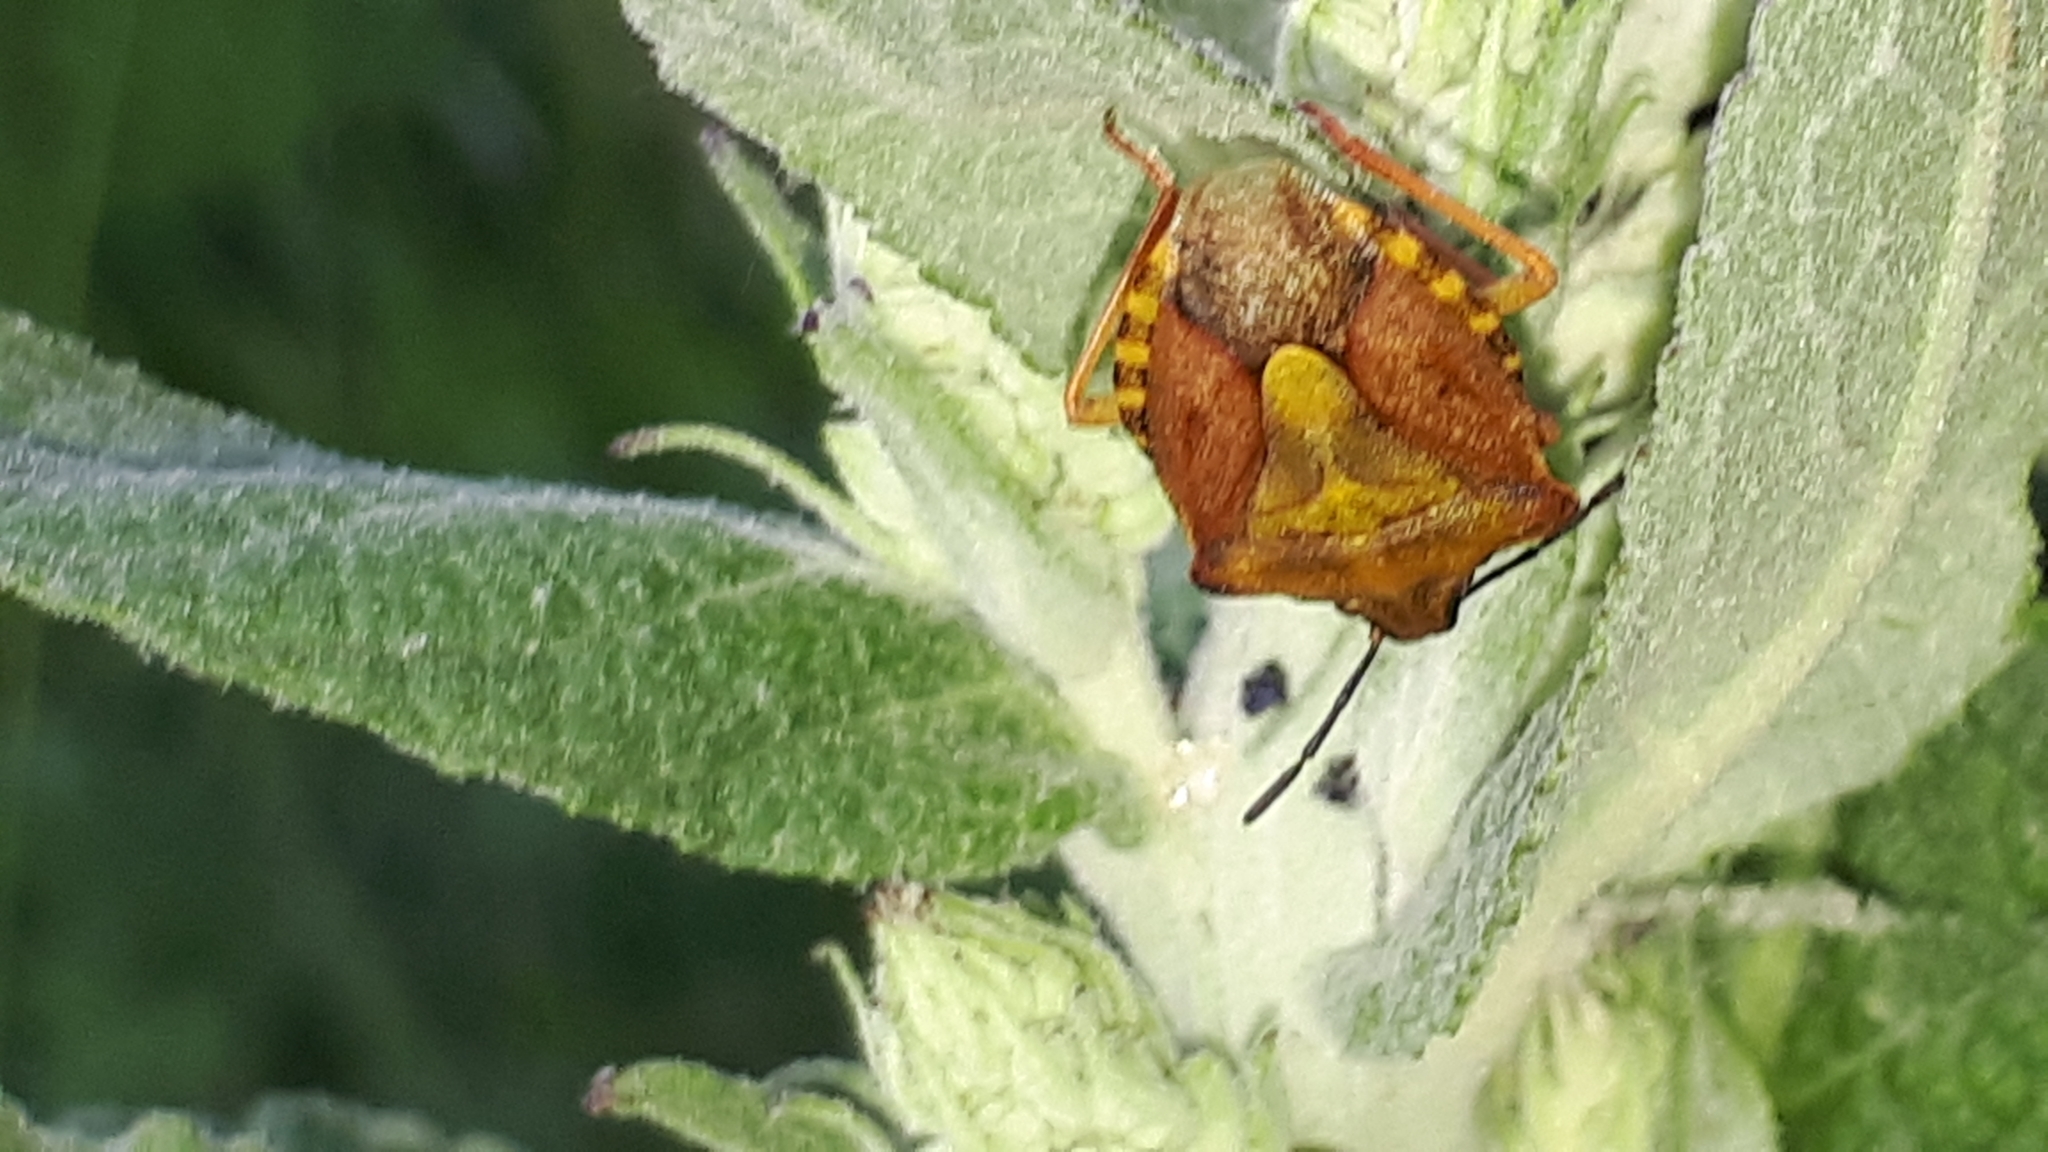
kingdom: Animalia
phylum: Arthropoda
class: Insecta
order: Hemiptera
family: Pentatomidae
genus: Carpocoris
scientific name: Carpocoris purpureipennis
